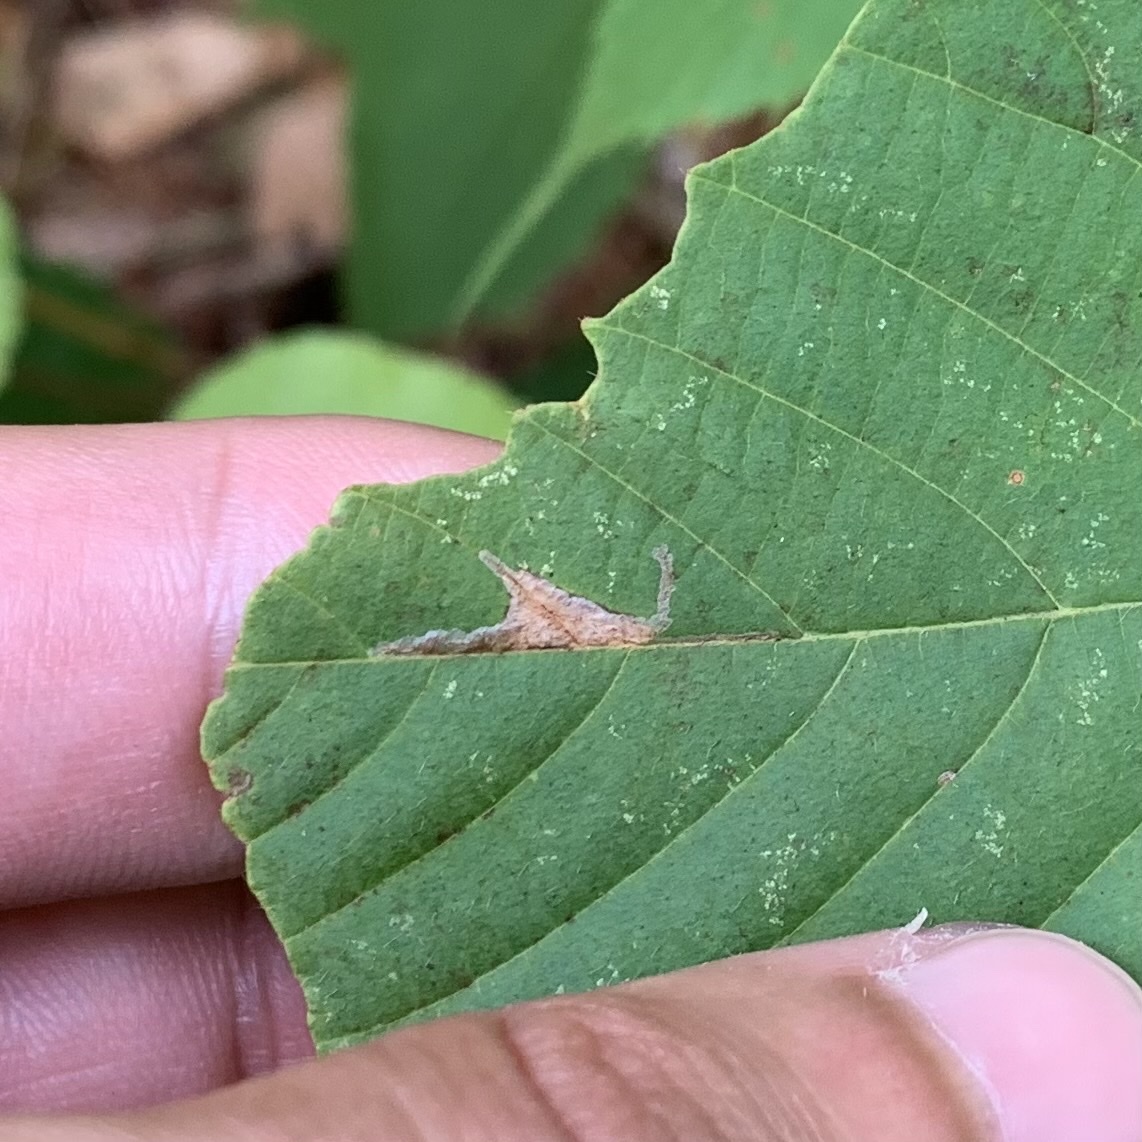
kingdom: Animalia
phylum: Arthropoda
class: Insecta
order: Lepidoptera
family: Gracillariidae
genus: Caloptilia
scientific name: Caloptilia ostryaeella
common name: Ironwood leafcone moth
